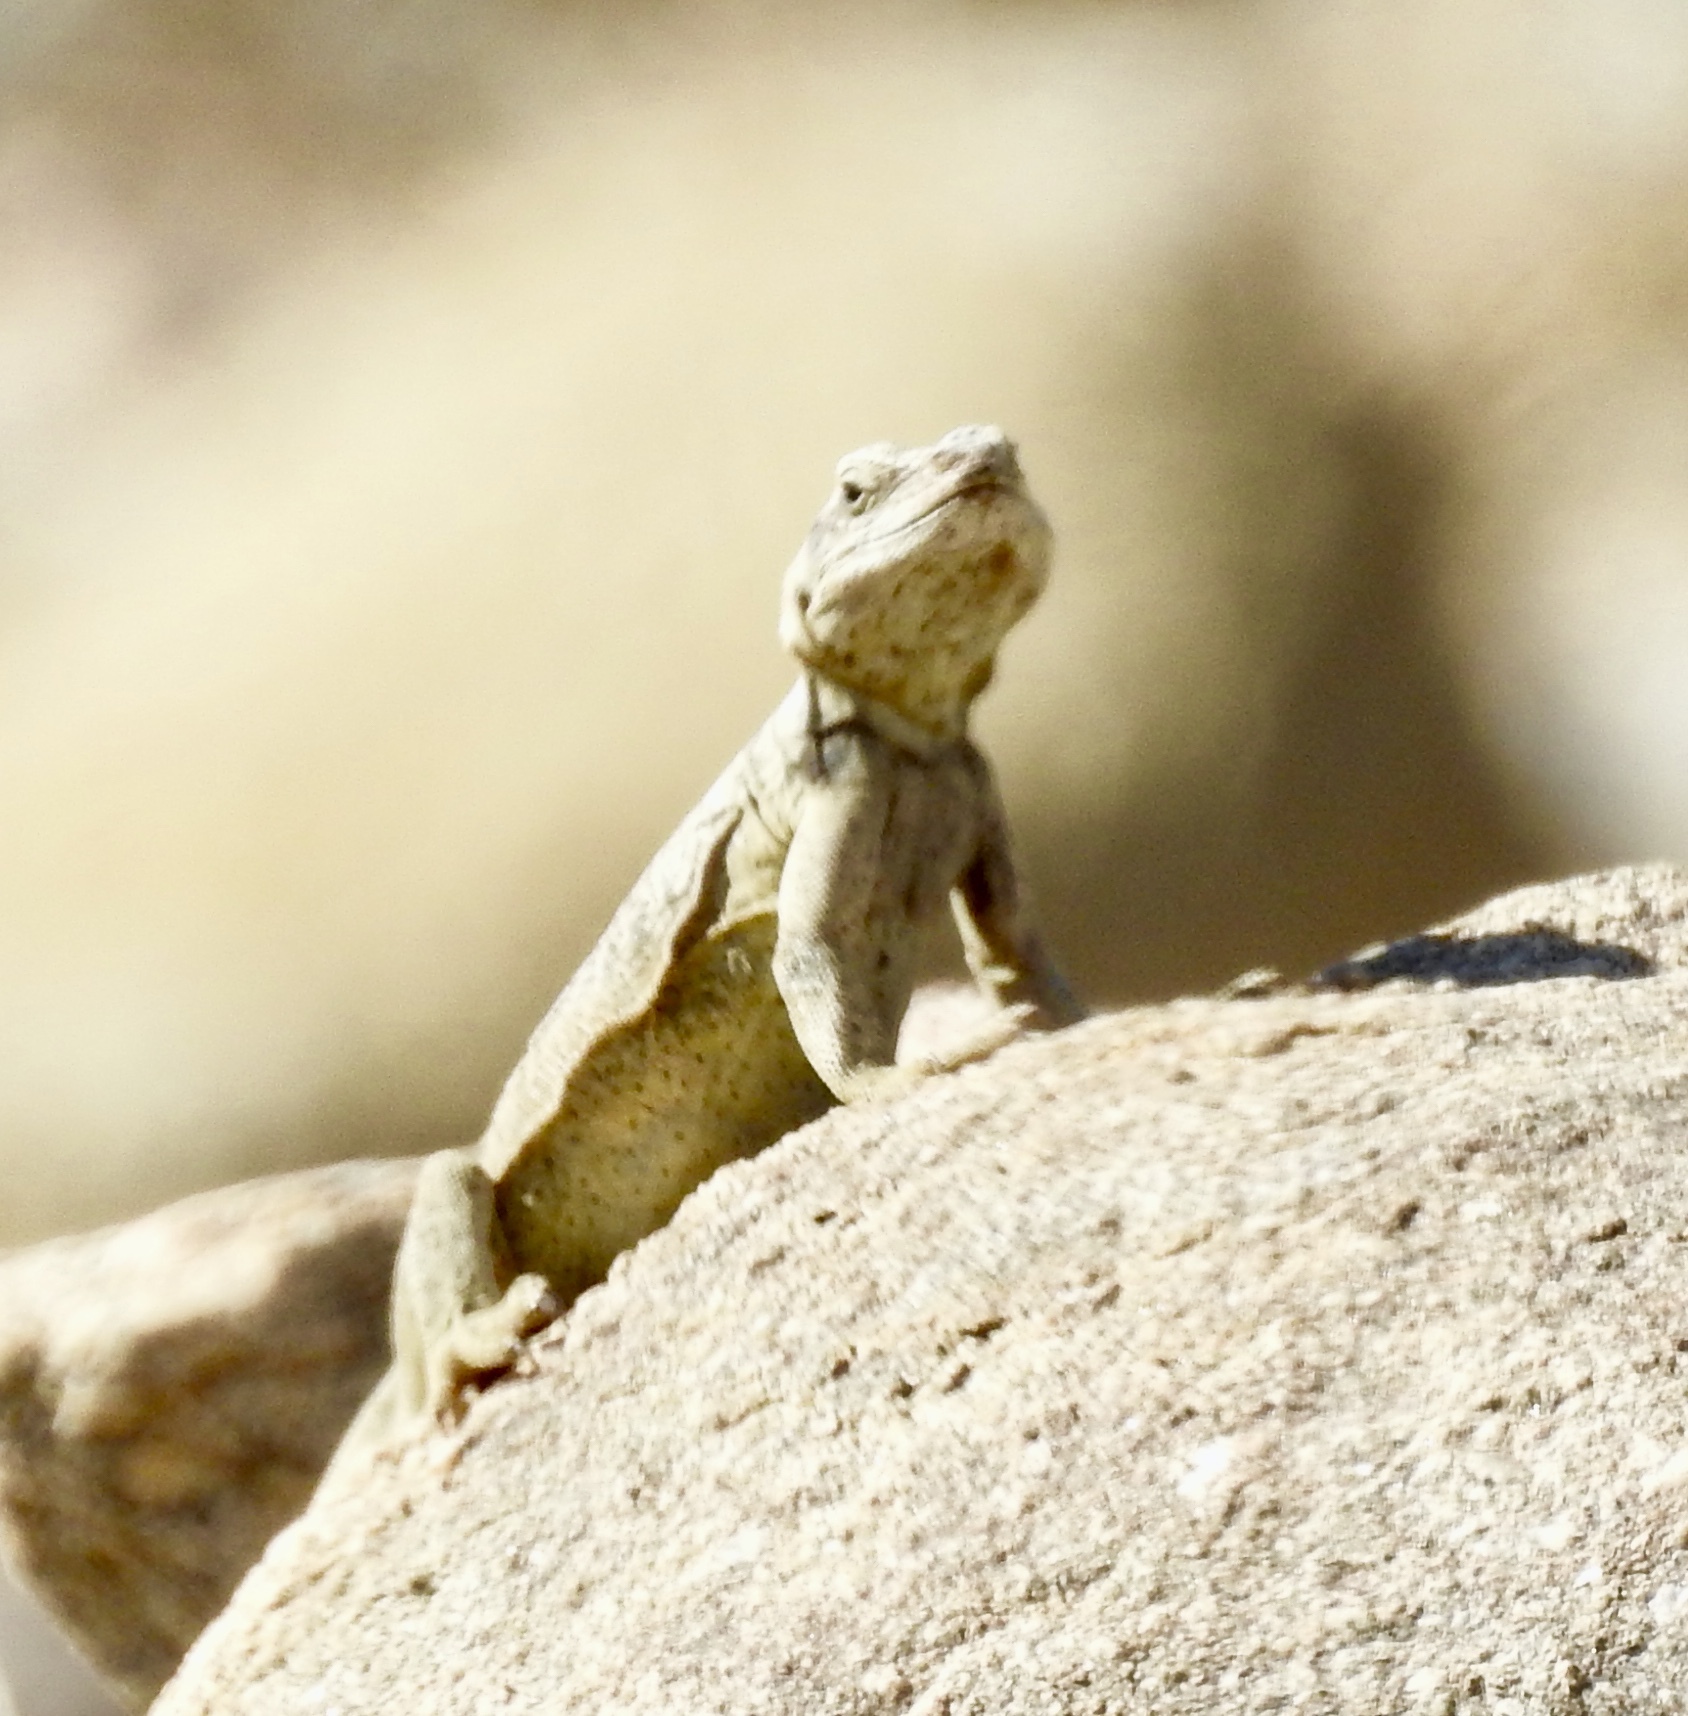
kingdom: Animalia
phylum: Chordata
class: Squamata
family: Iguanidae
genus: Sauromalus
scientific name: Sauromalus ater
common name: Northern chuckwalla
